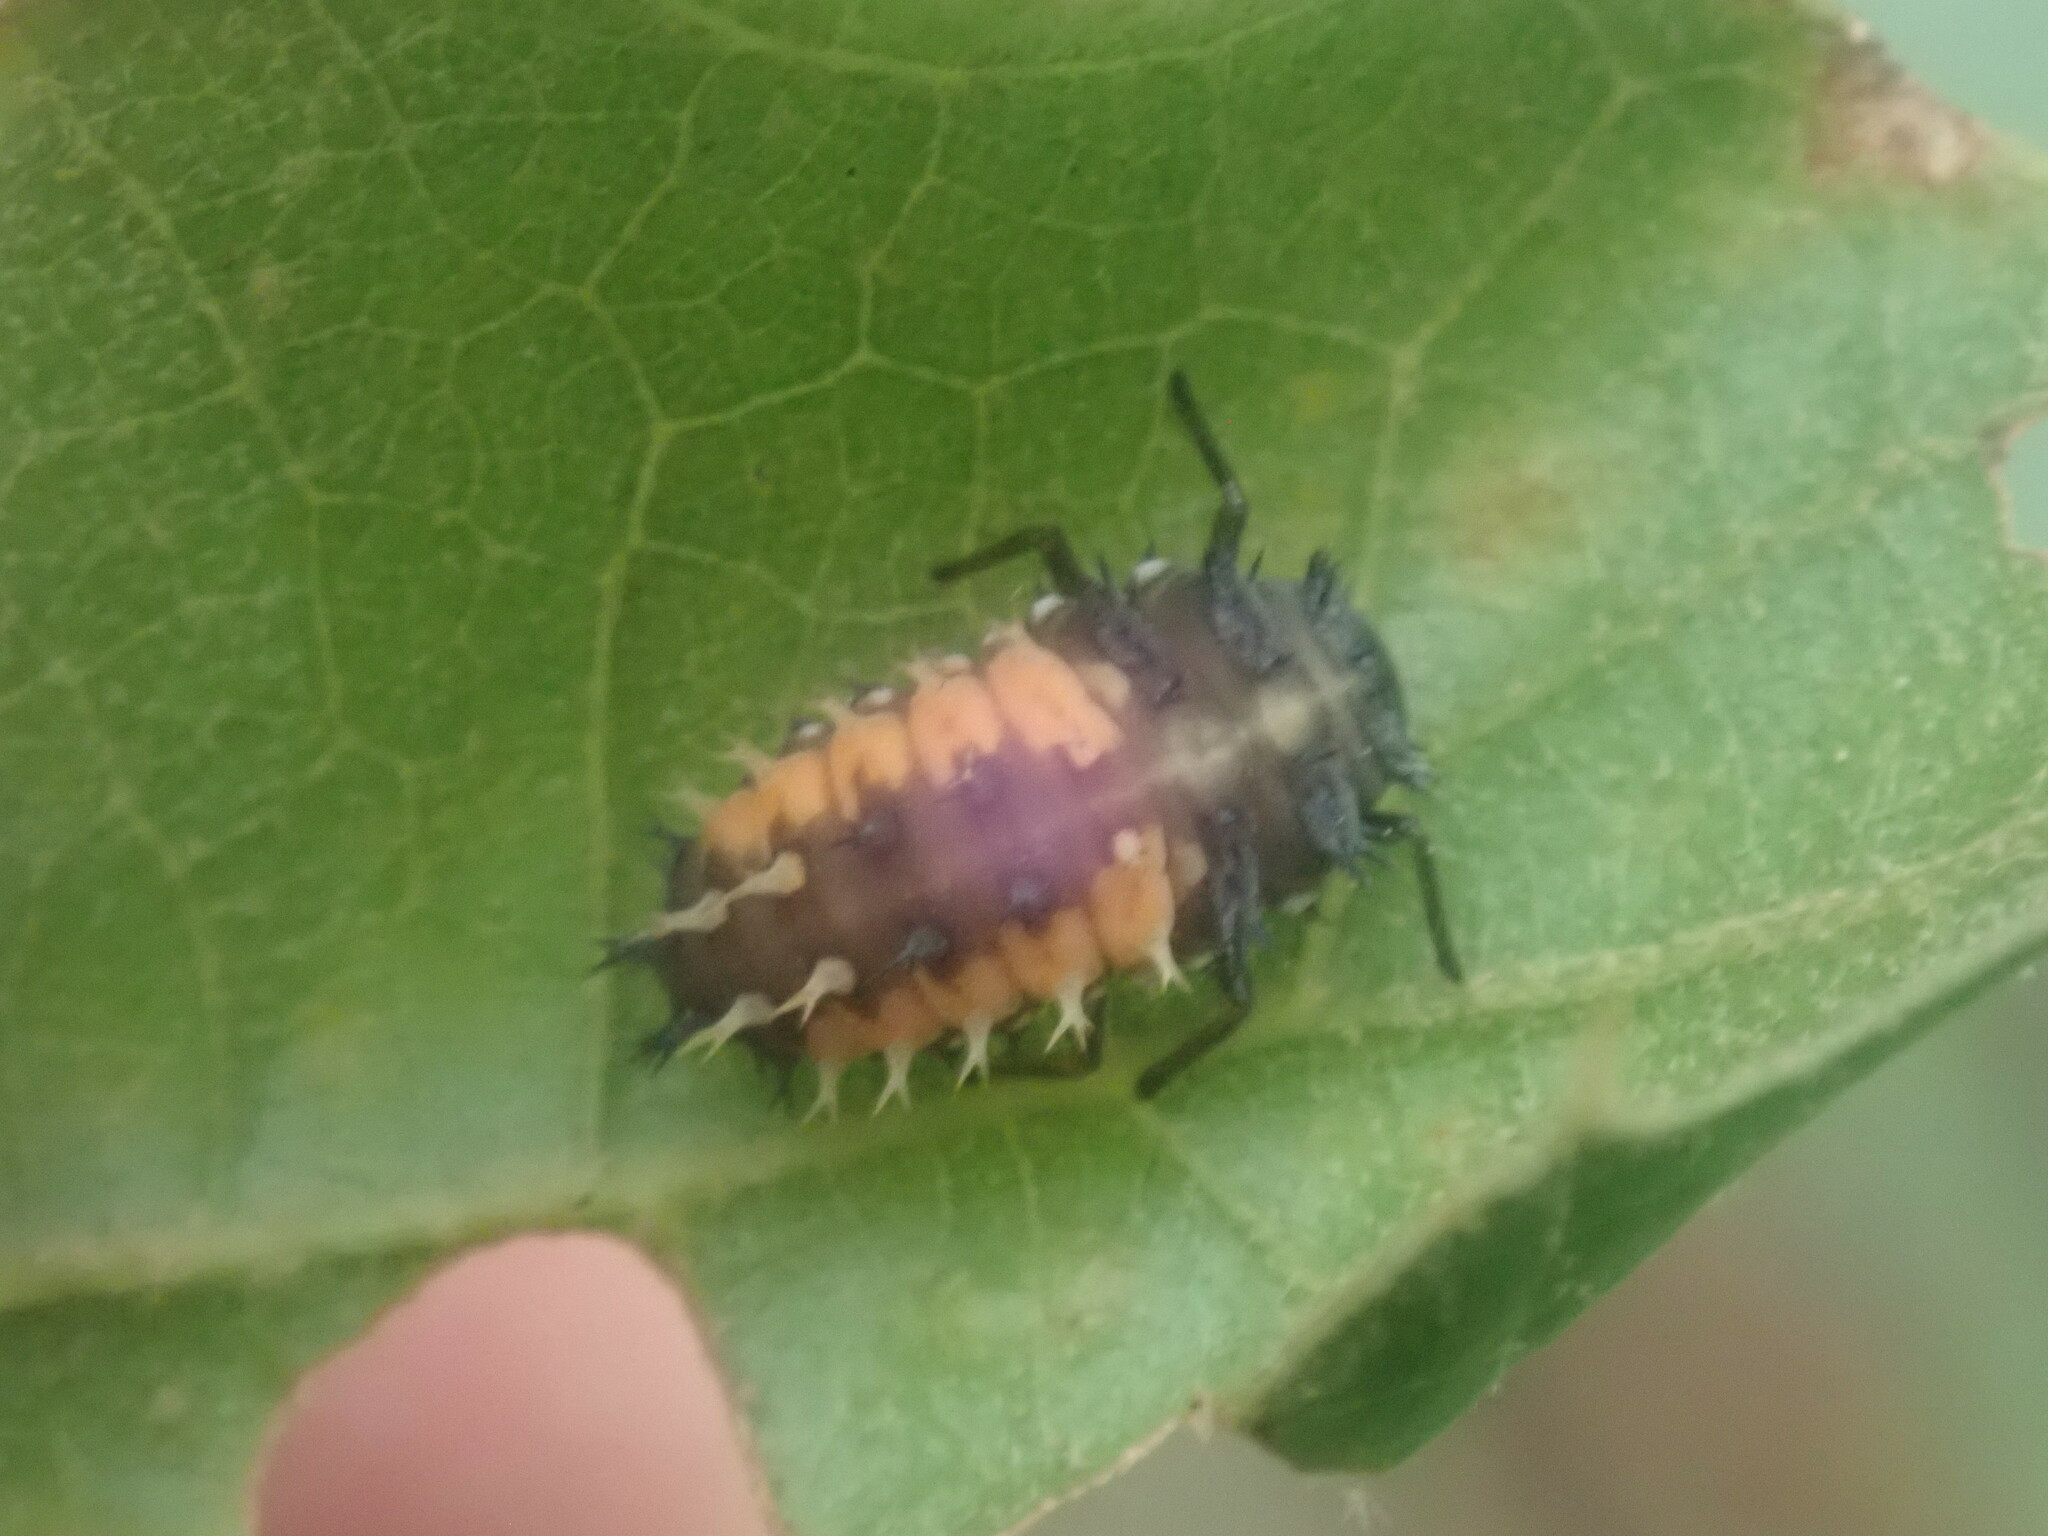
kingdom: Animalia
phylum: Arthropoda
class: Insecta
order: Coleoptera
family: Coccinellidae
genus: Harmonia
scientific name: Harmonia axyridis
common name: Harlequin ladybird
